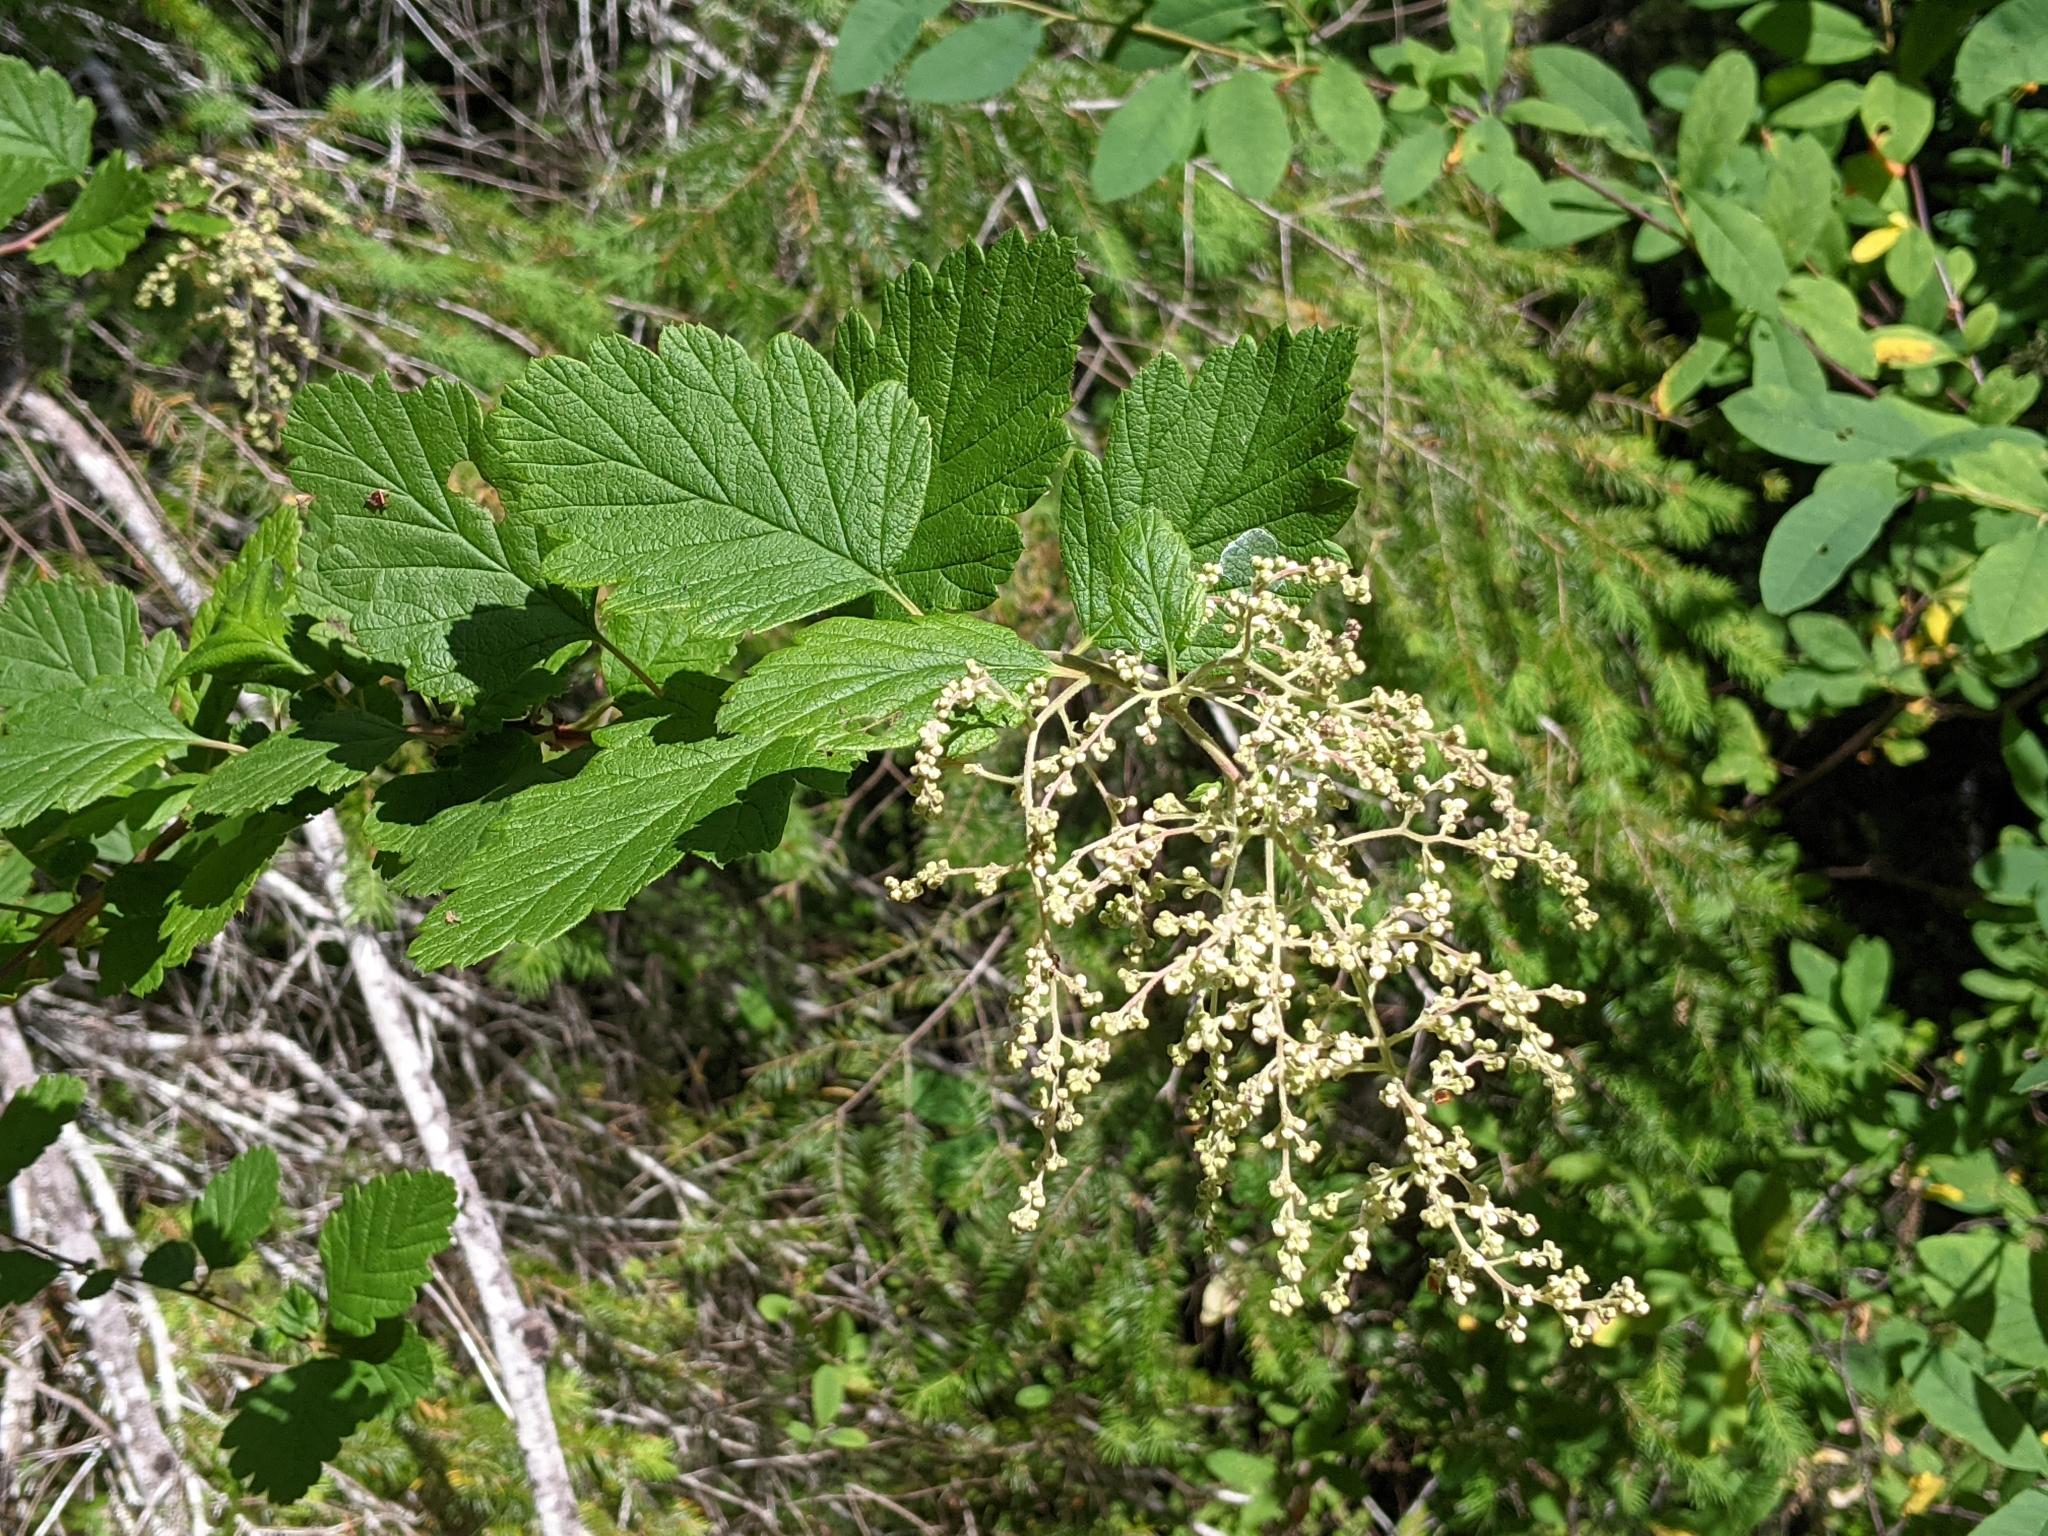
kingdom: Plantae
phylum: Tracheophyta
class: Magnoliopsida
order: Rosales
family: Rosaceae
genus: Holodiscus
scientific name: Holodiscus discolor
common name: Oceanspray
